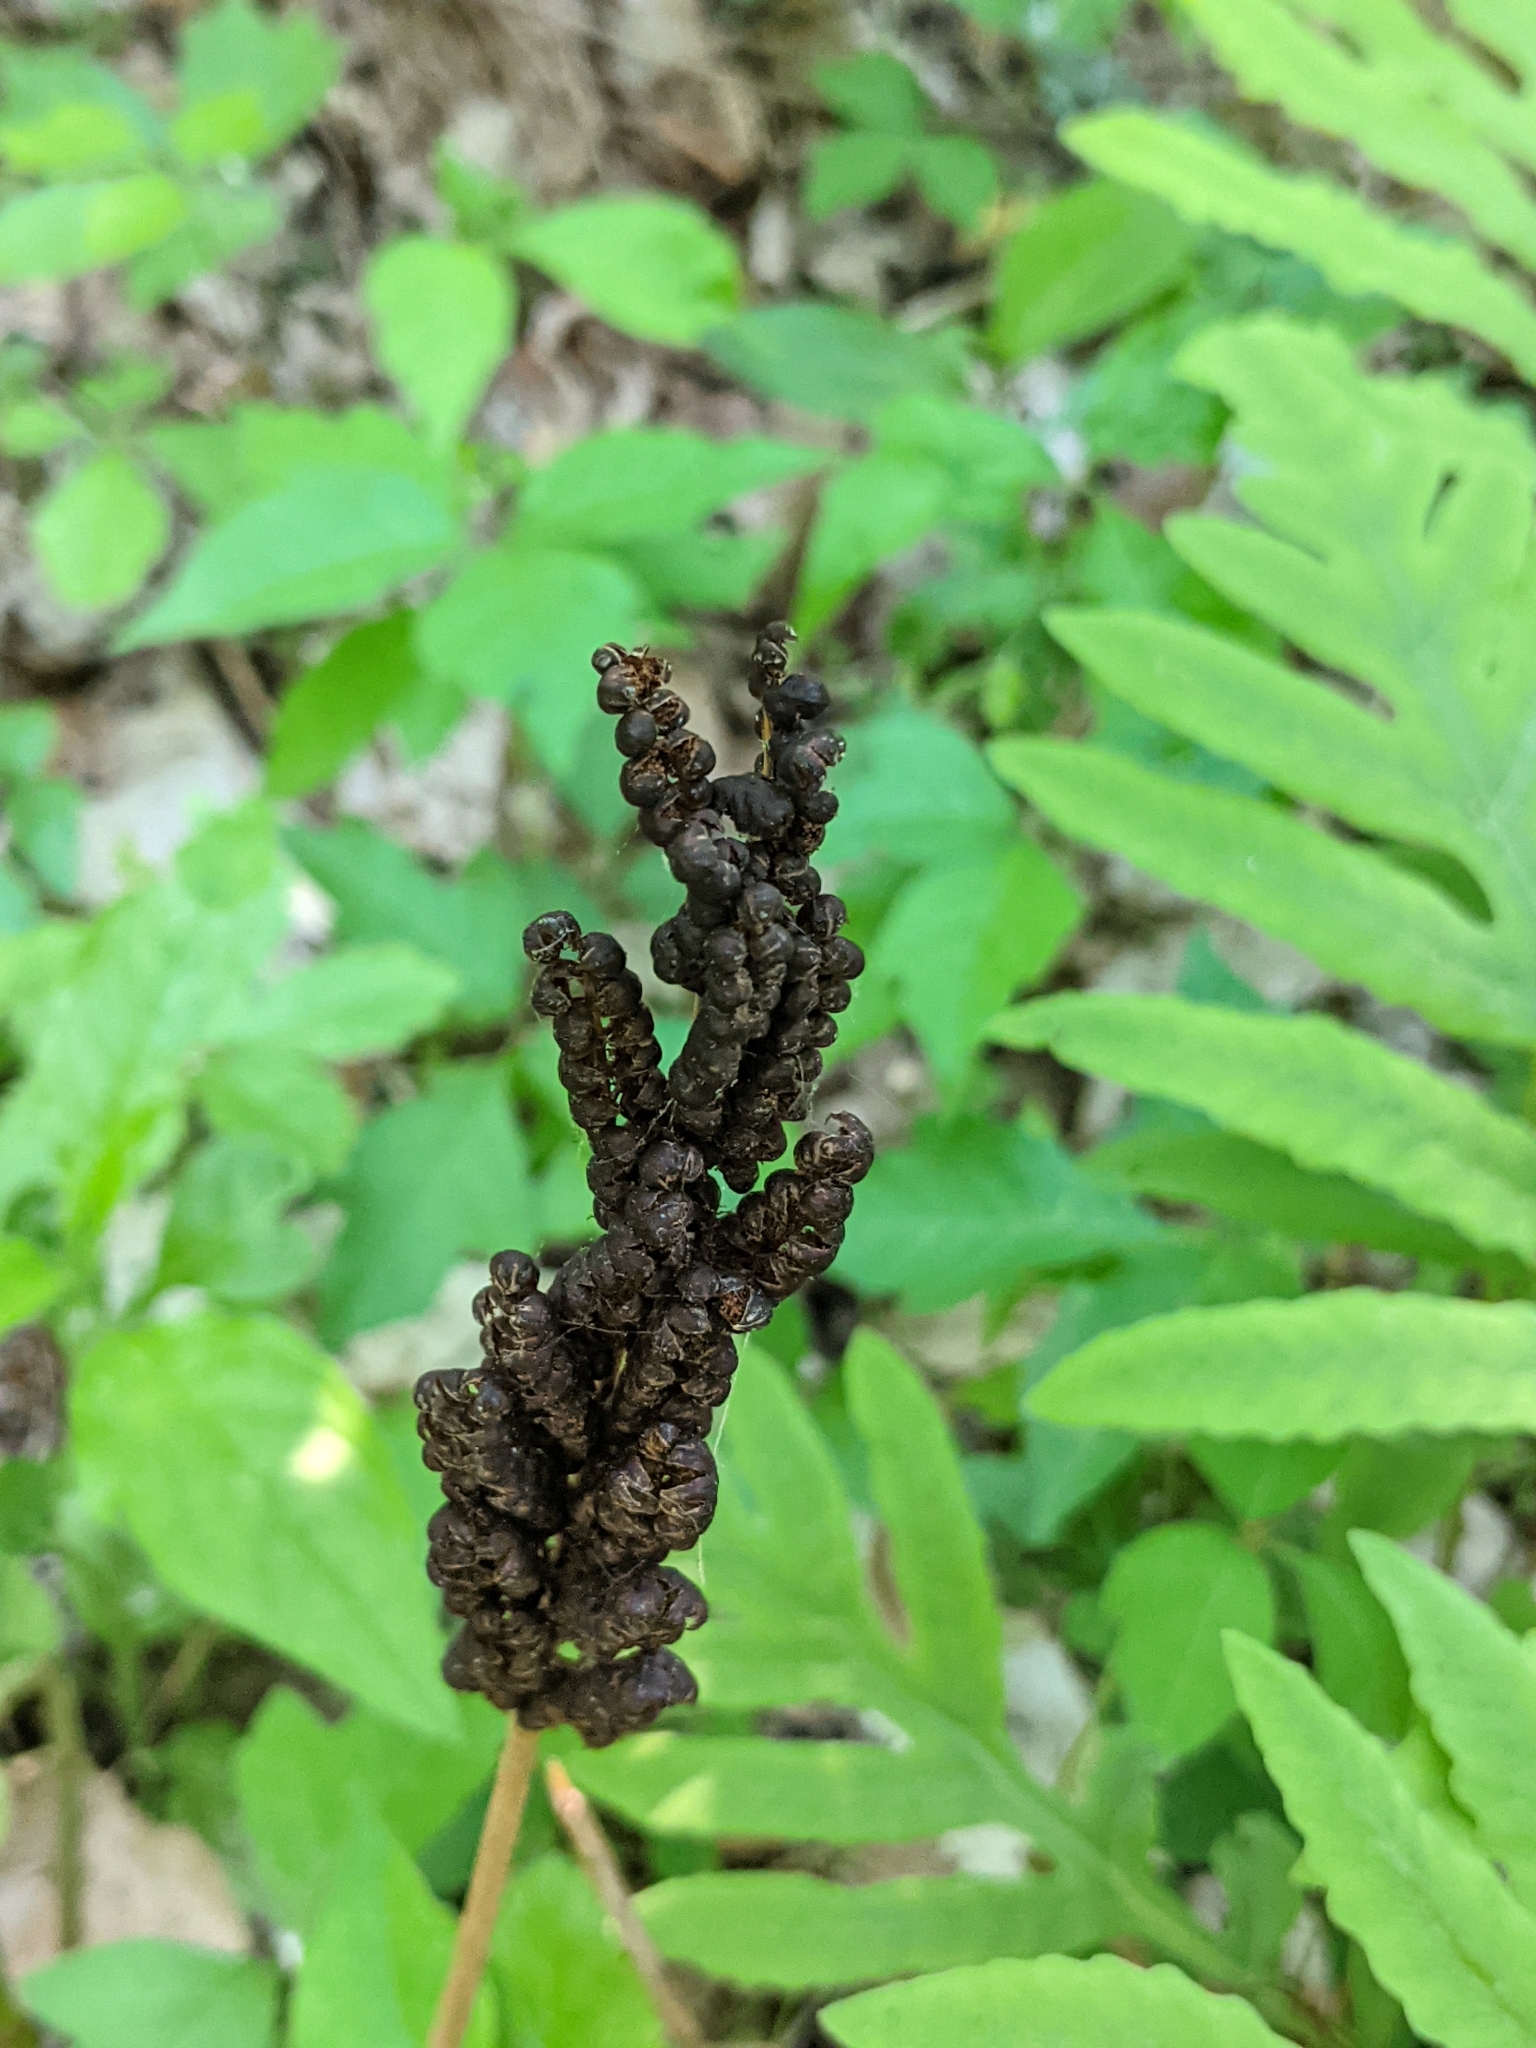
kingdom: Plantae
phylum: Tracheophyta
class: Polypodiopsida
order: Polypodiales
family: Onocleaceae
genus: Onoclea
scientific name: Onoclea sensibilis
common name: Sensitive fern
